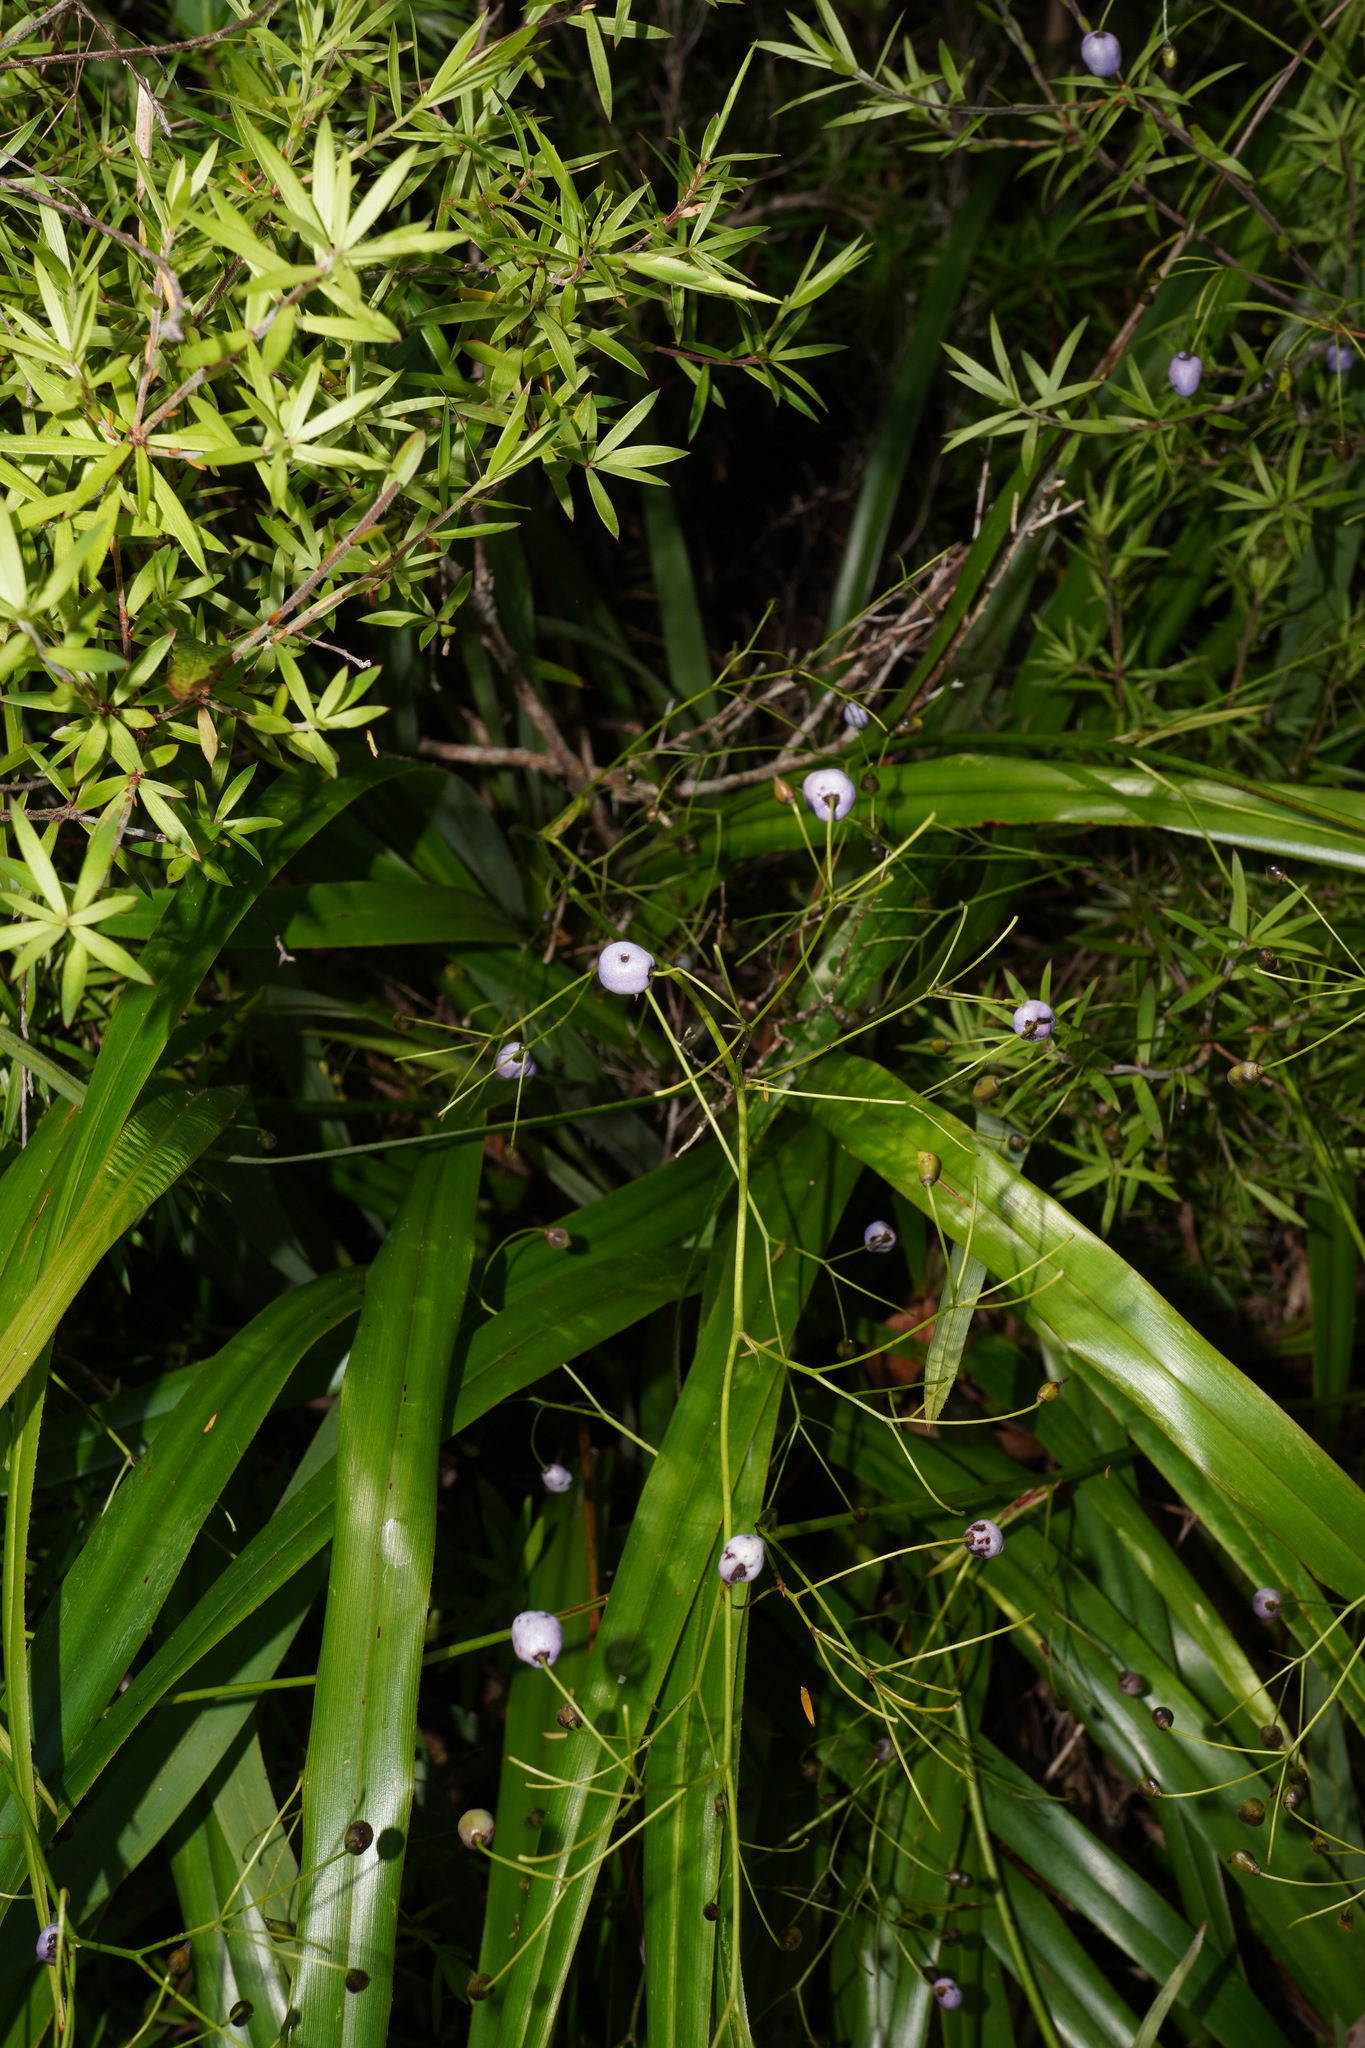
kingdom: Plantae
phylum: Tracheophyta
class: Liliopsida
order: Asparagales
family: Asphodelaceae
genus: Dianella
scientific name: Dianella nigra
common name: New zealand-blueberry
